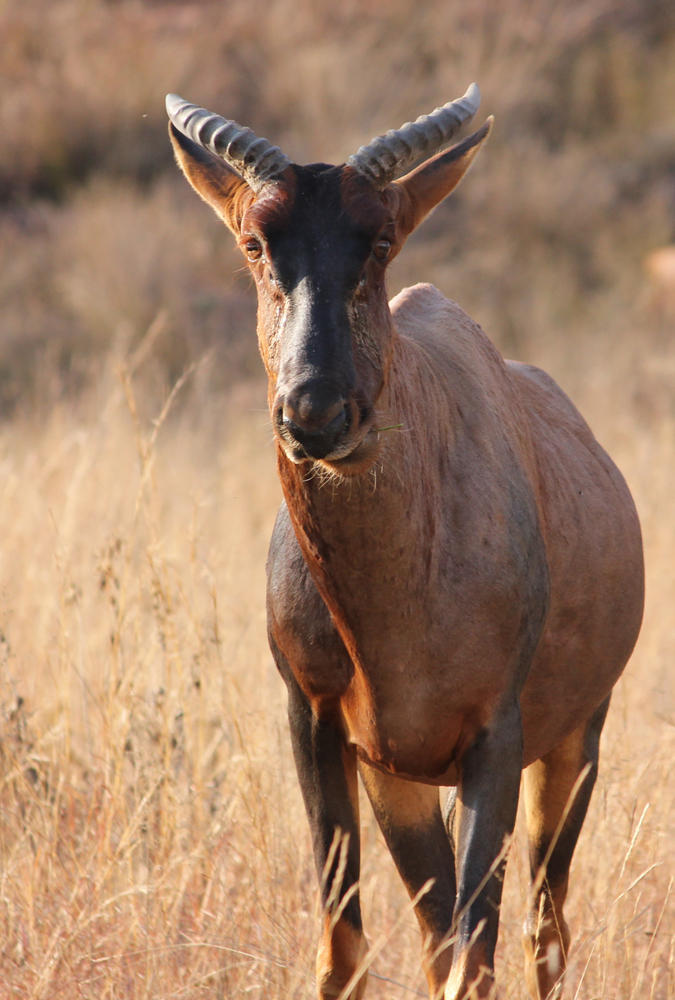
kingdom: Animalia
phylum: Chordata
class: Mammalia
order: Artiodactyla
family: Bovidae
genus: Damaliscus
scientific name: Damaliscus lunatus
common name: Common tsessebe
